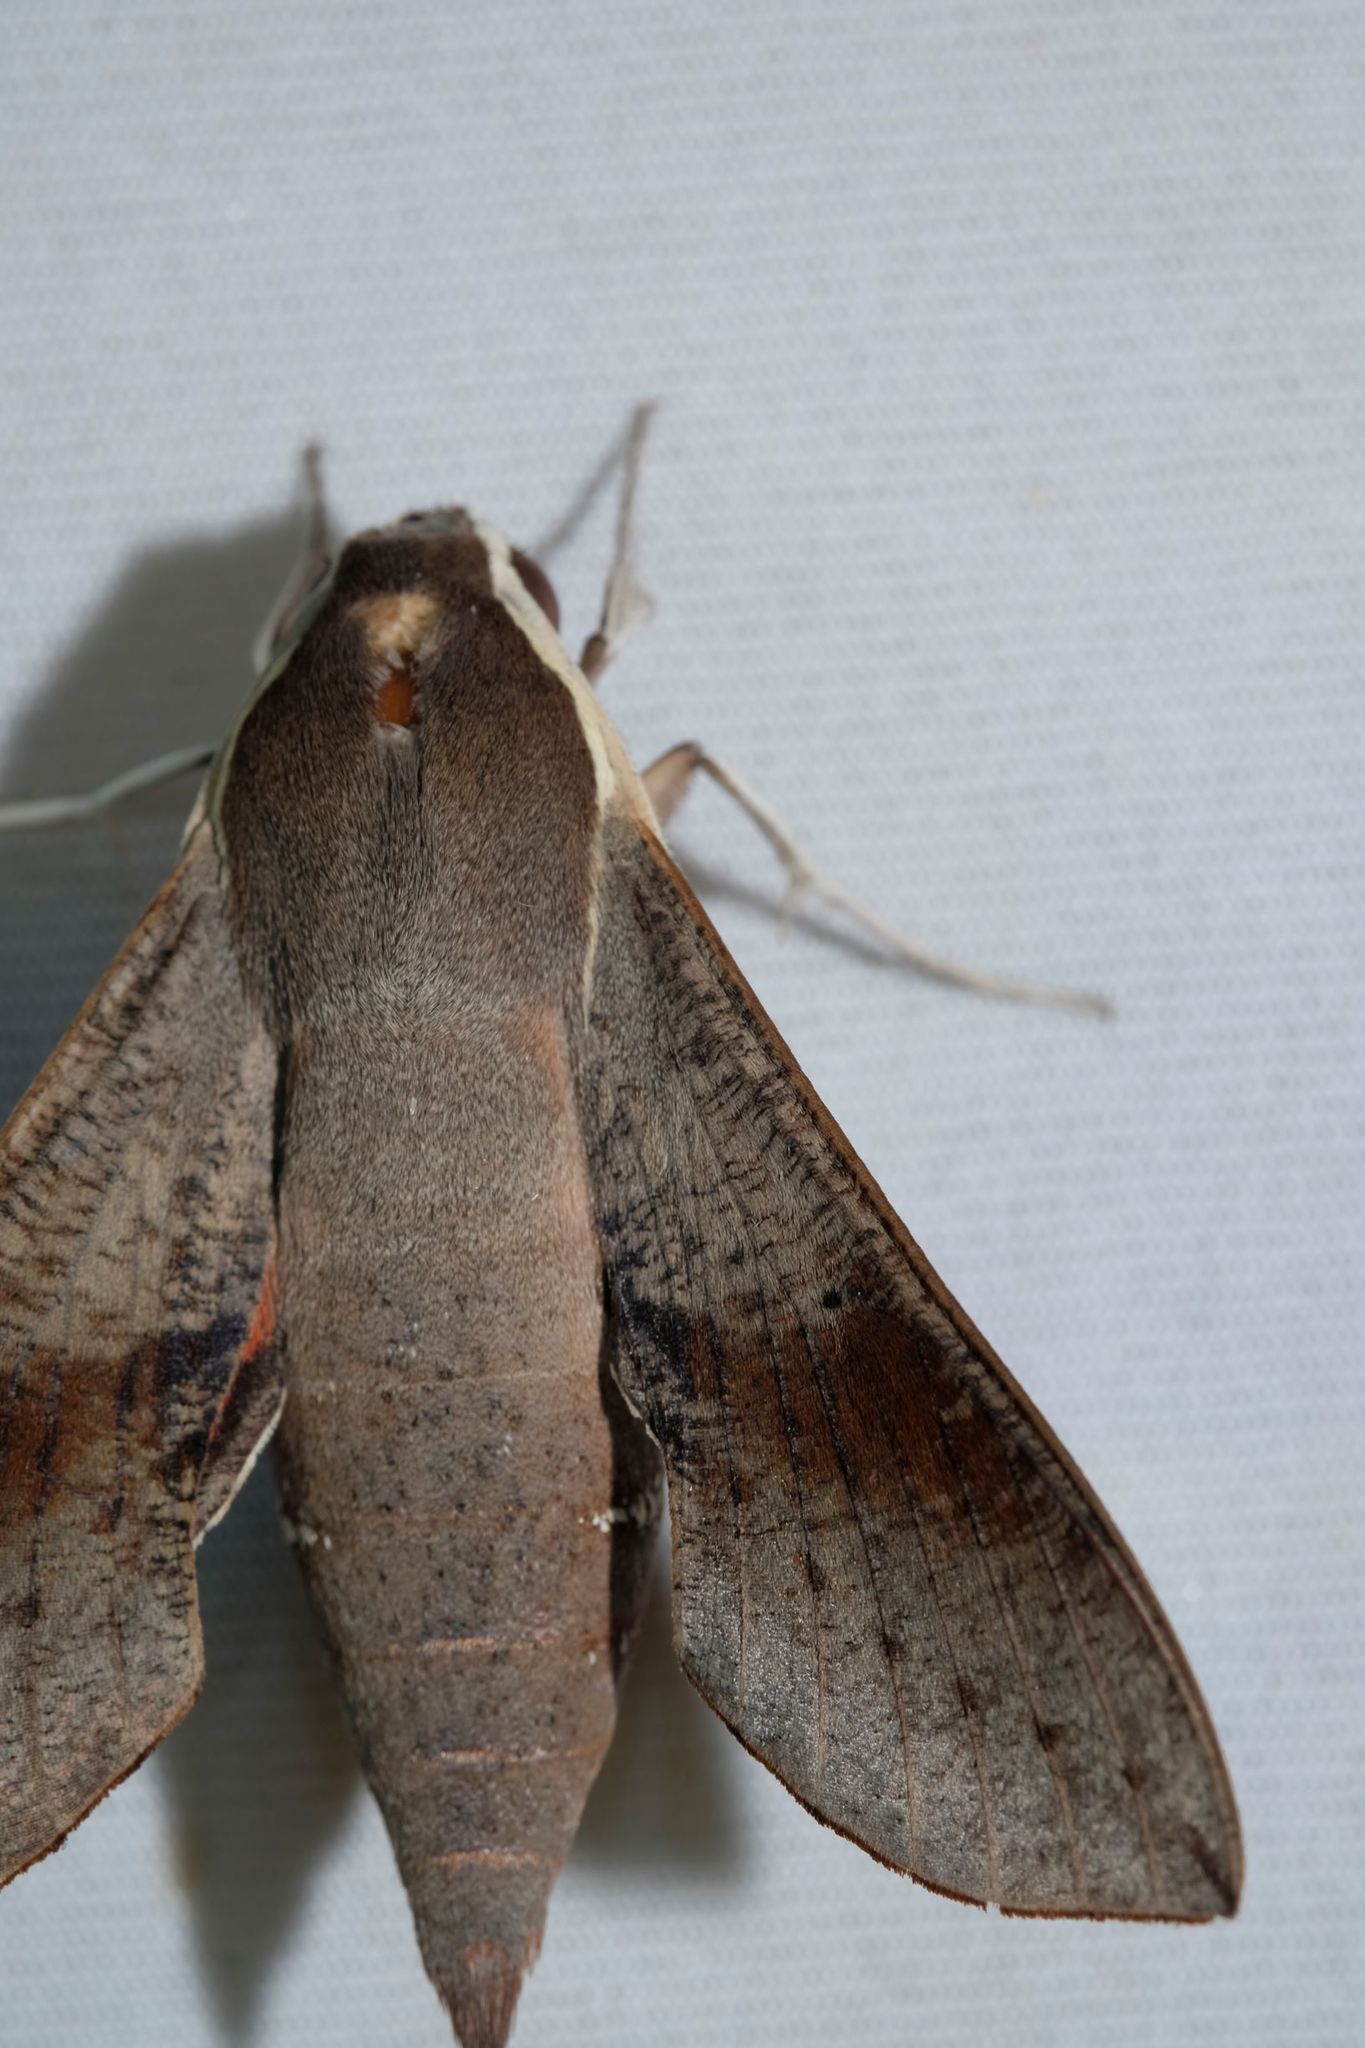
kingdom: Animalia
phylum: Arthropoda
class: Insecta
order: Lepidoptera
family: Sphingidae
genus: Hippotion
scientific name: Hippotion scrofa
